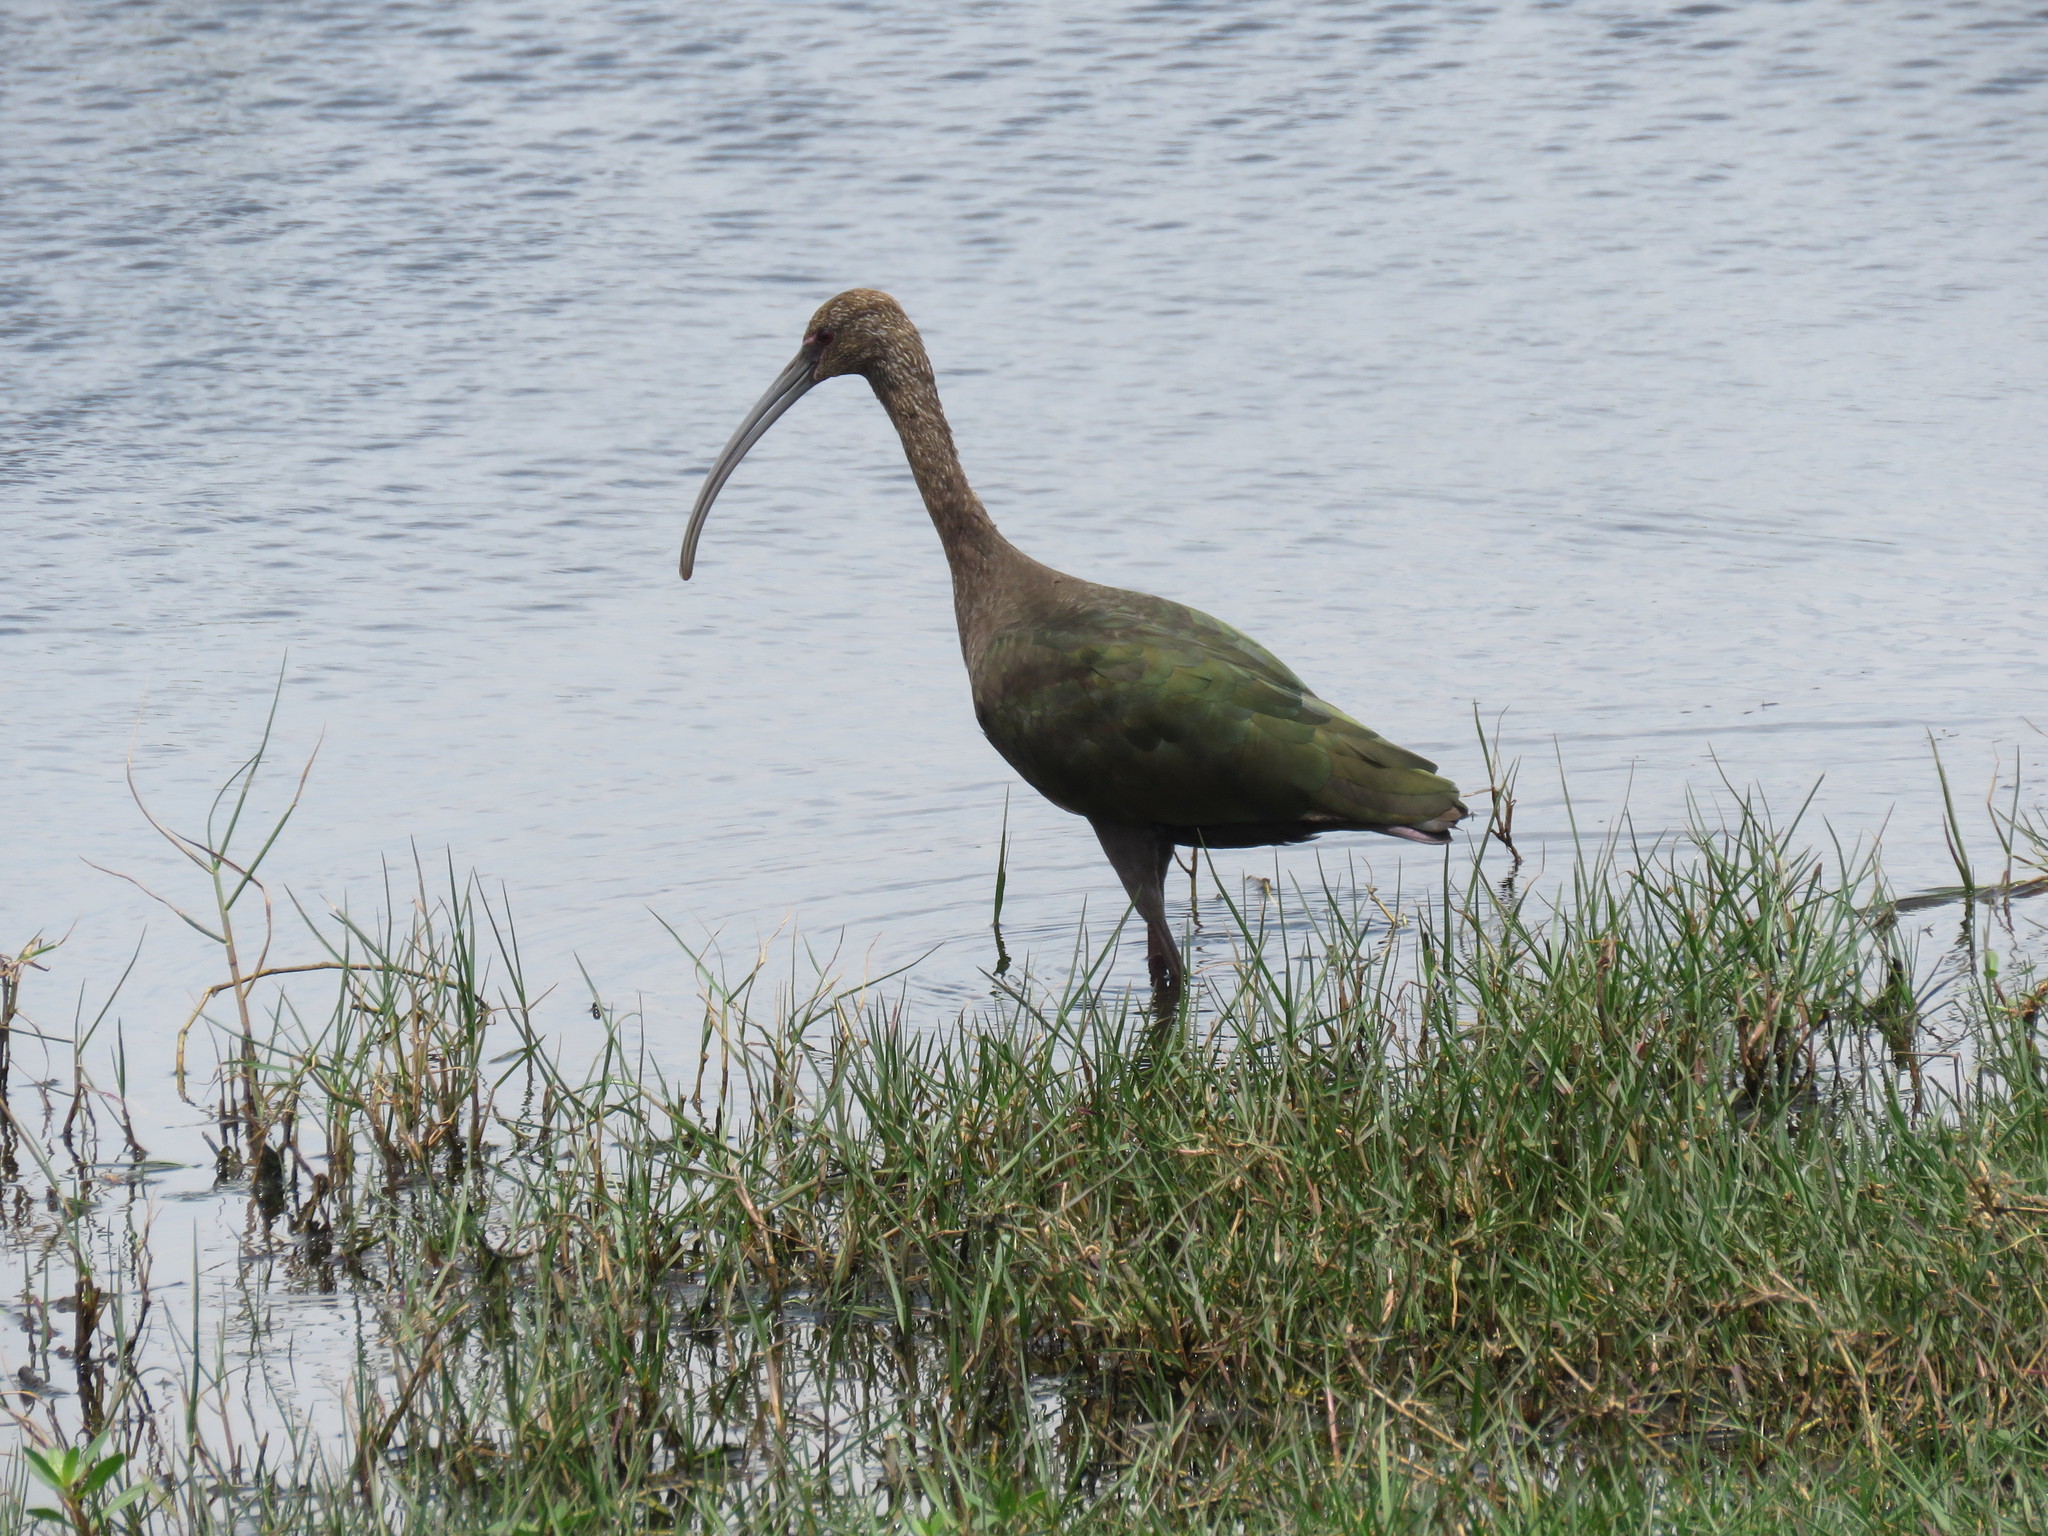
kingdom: Animalia
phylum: Chordata
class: Aves
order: Pelecaniformes
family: Threskiornithidae
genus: Plegadis
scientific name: Plegadis chihi
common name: White-faced ibis
